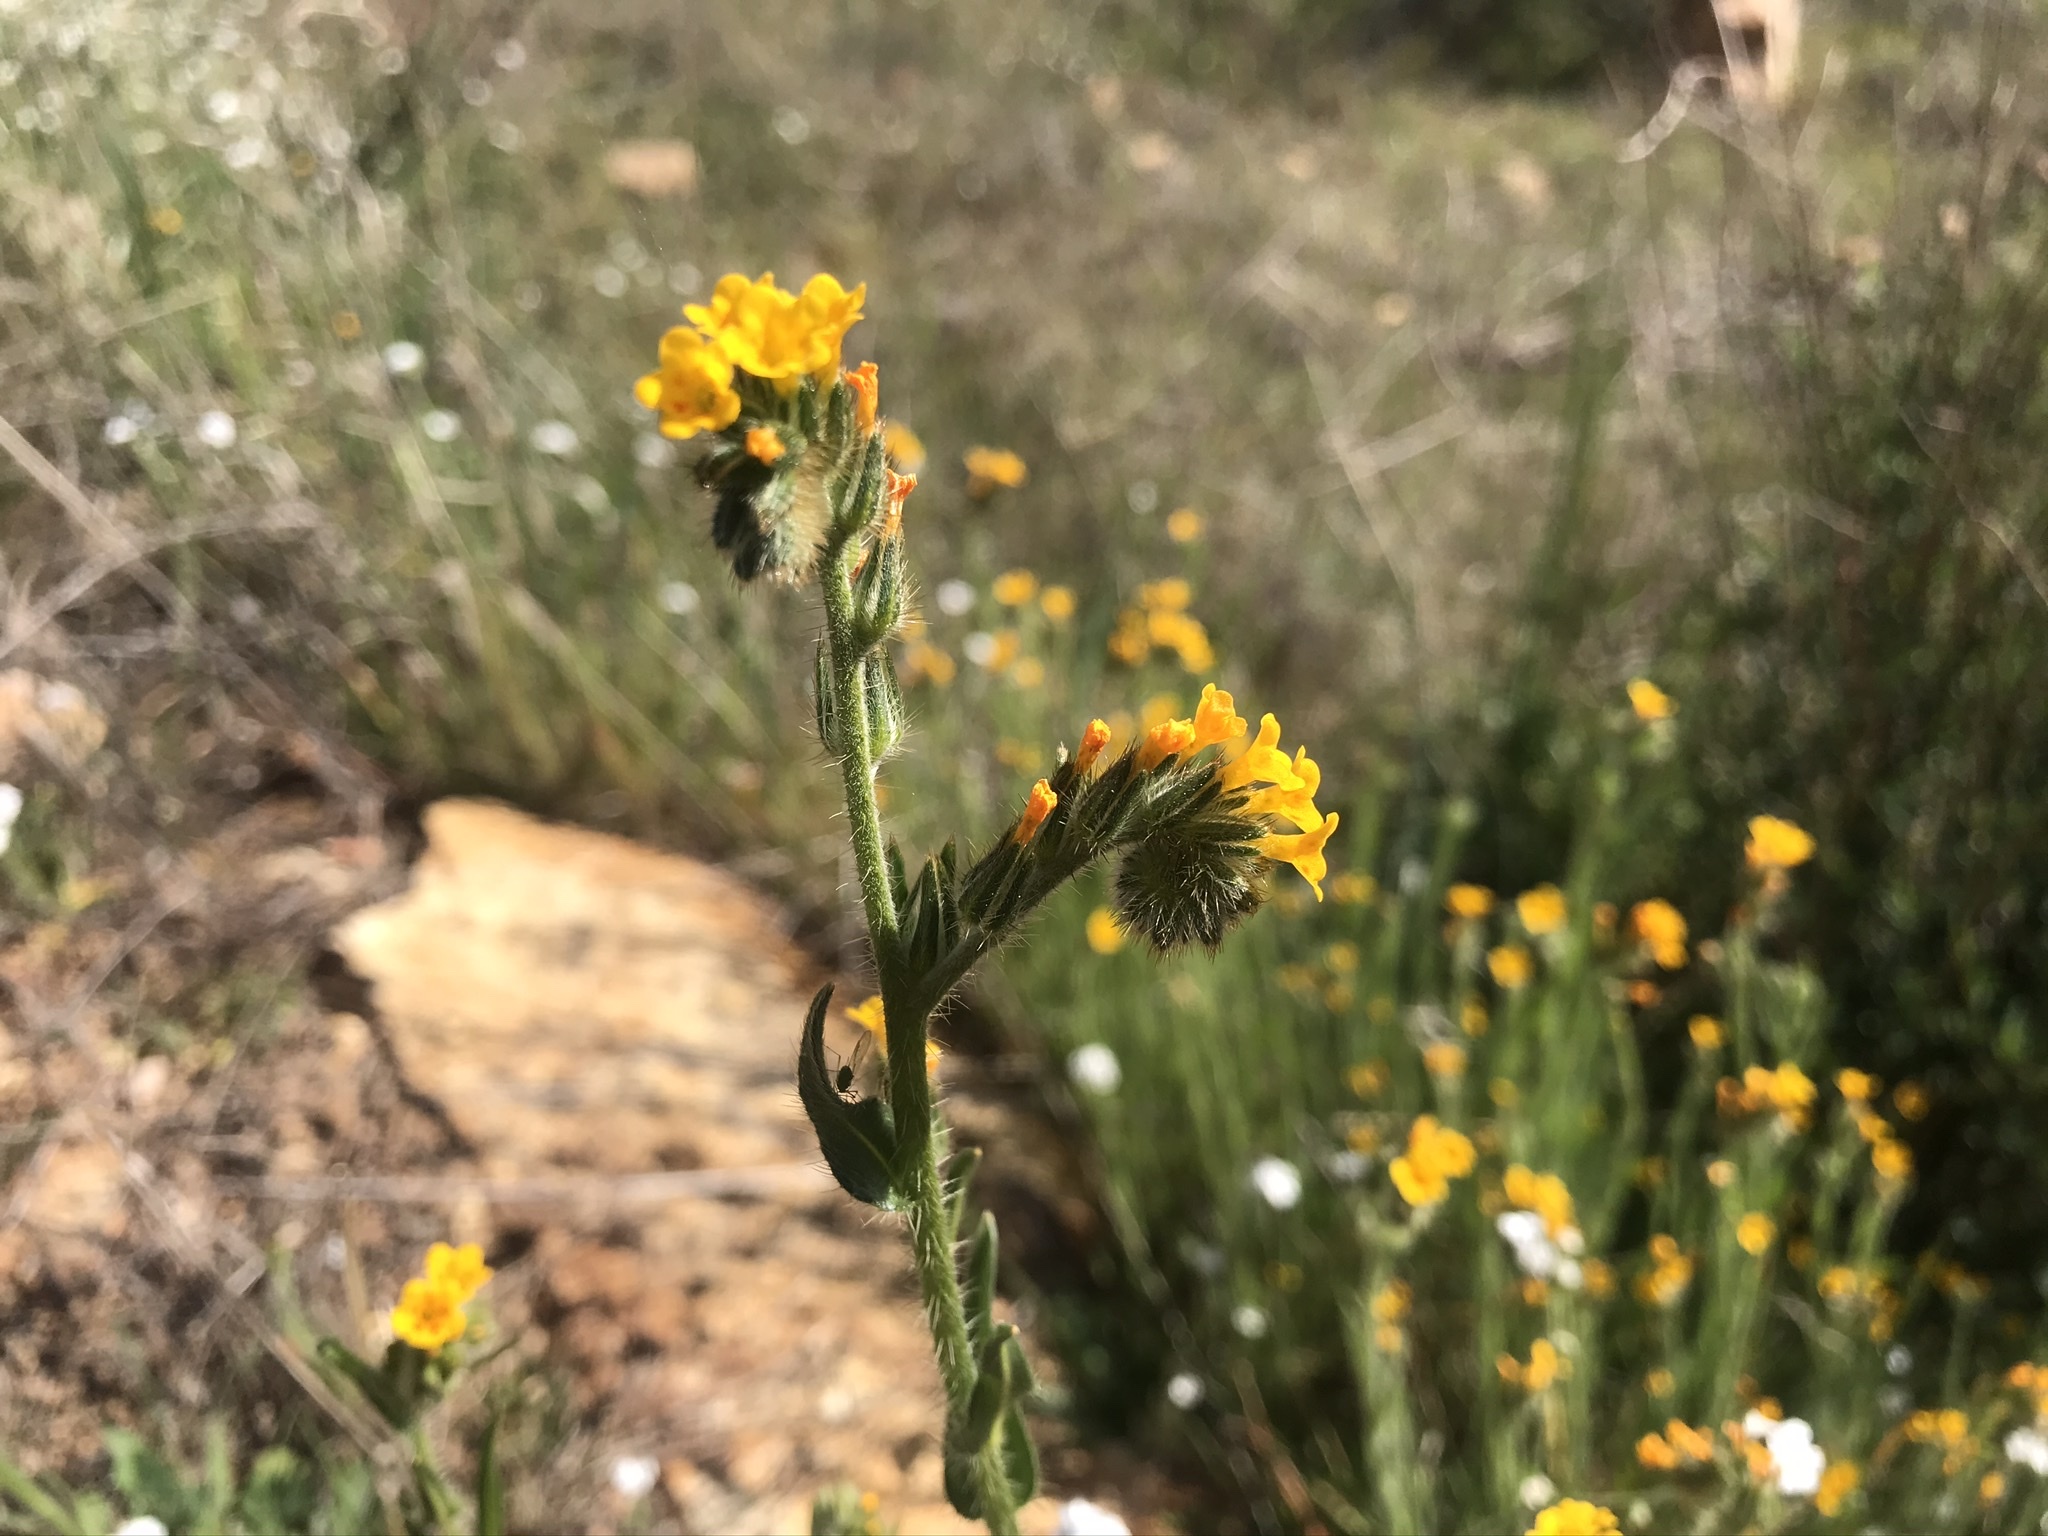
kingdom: Plantae
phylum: Tracheophyta
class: Magnoliopsida
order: Boraginales
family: Boraginaceae
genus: Amsinckia
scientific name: Amsinckia menziesii
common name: Menzies' fiddleneck
